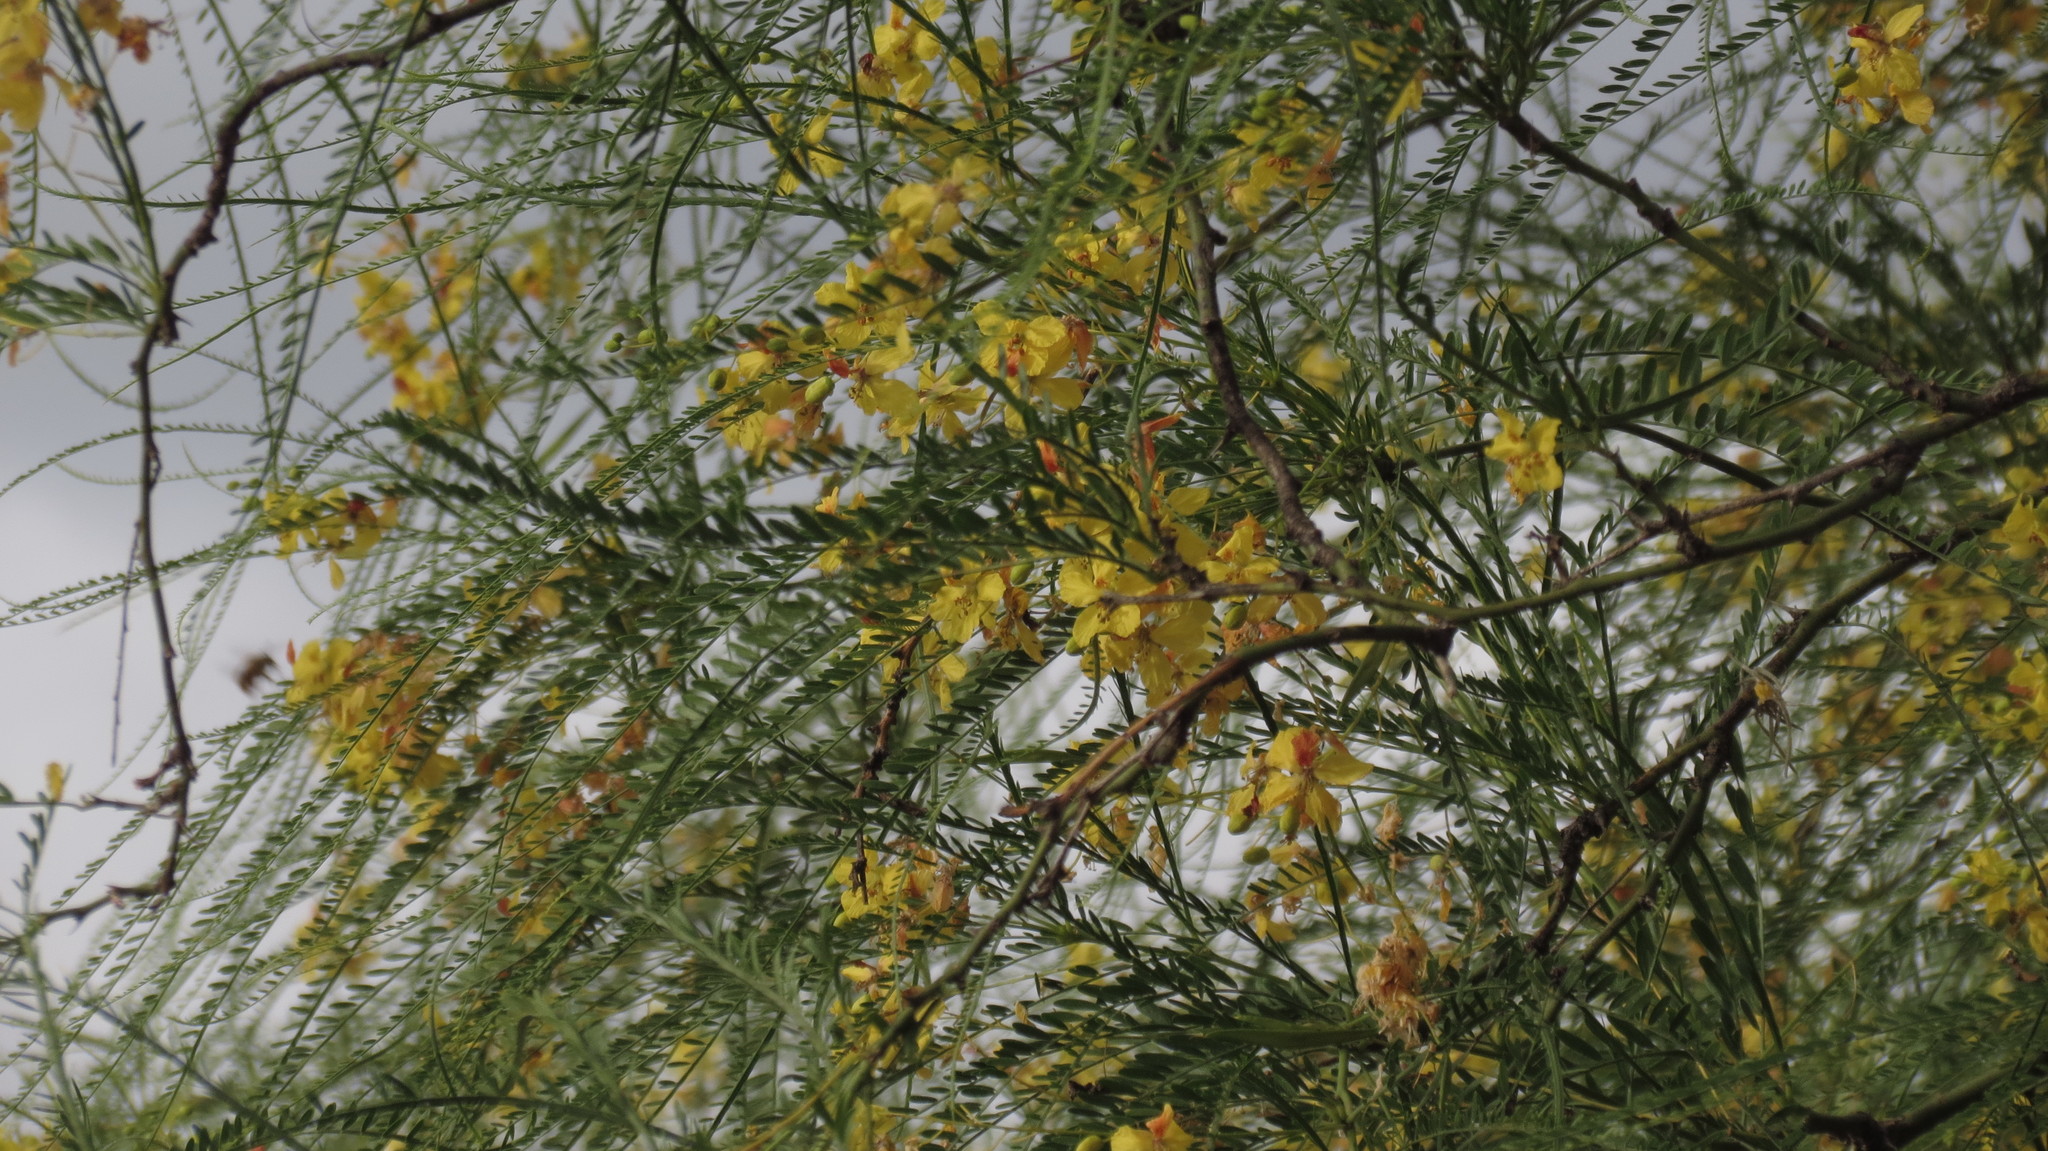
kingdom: Plantae
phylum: Tracheophyta
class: Magnoliopsida
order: Fabales
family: Fabaceae
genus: Parkinsonia
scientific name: Parkinsonia aculeata
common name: Jerusalem thorn
